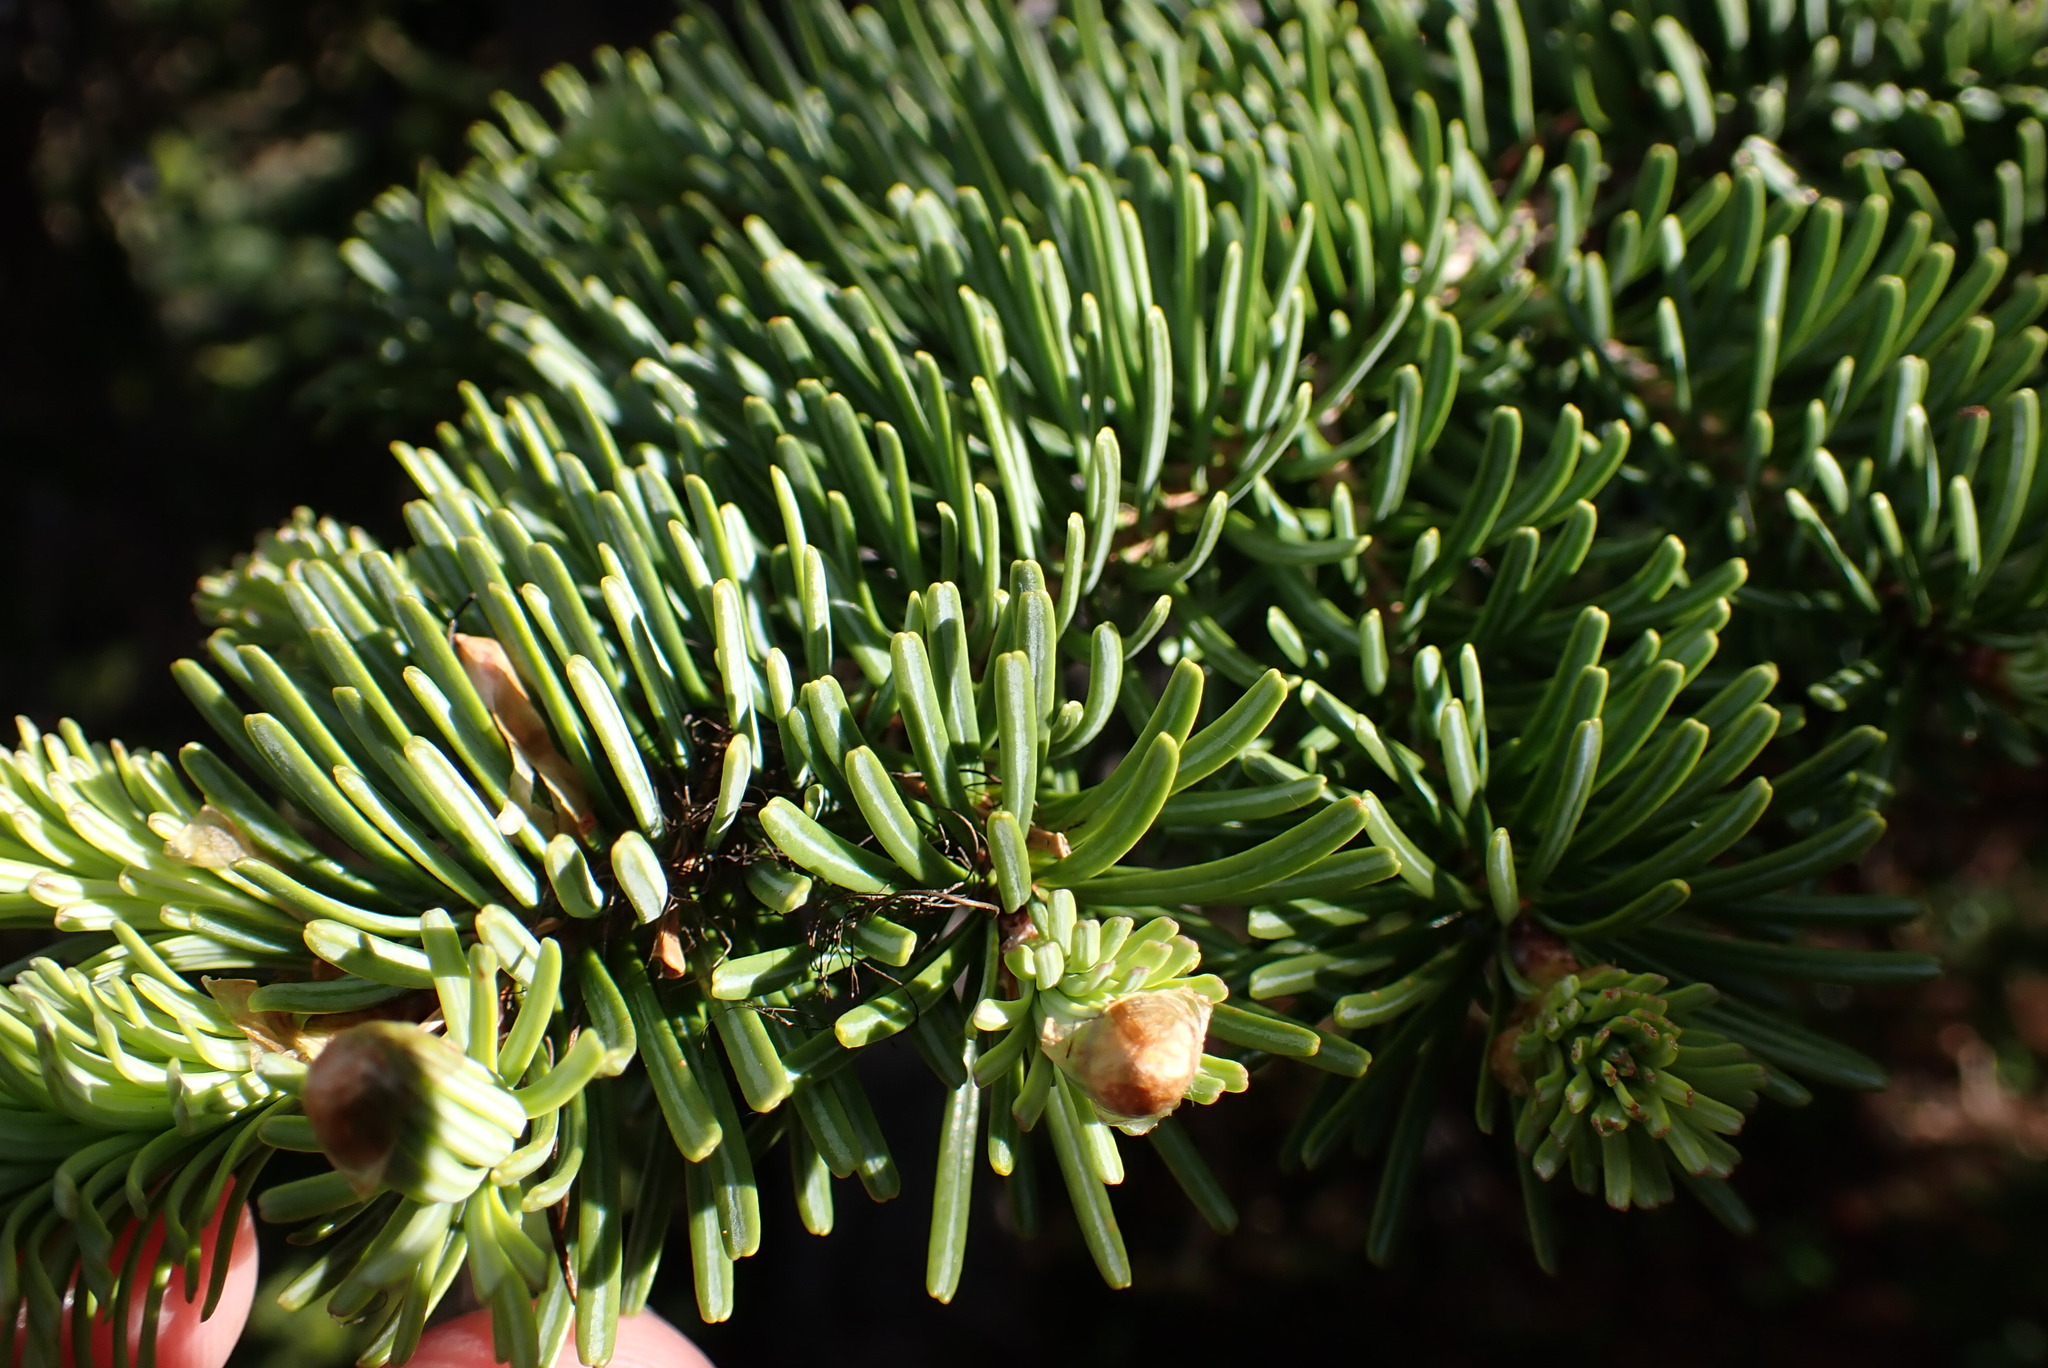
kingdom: Plantae
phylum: Tracheophyta
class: Pinopsida
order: Pinales
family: Pinaceae
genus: Abies
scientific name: Abies lasiocarpa
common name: Subalpine fir
